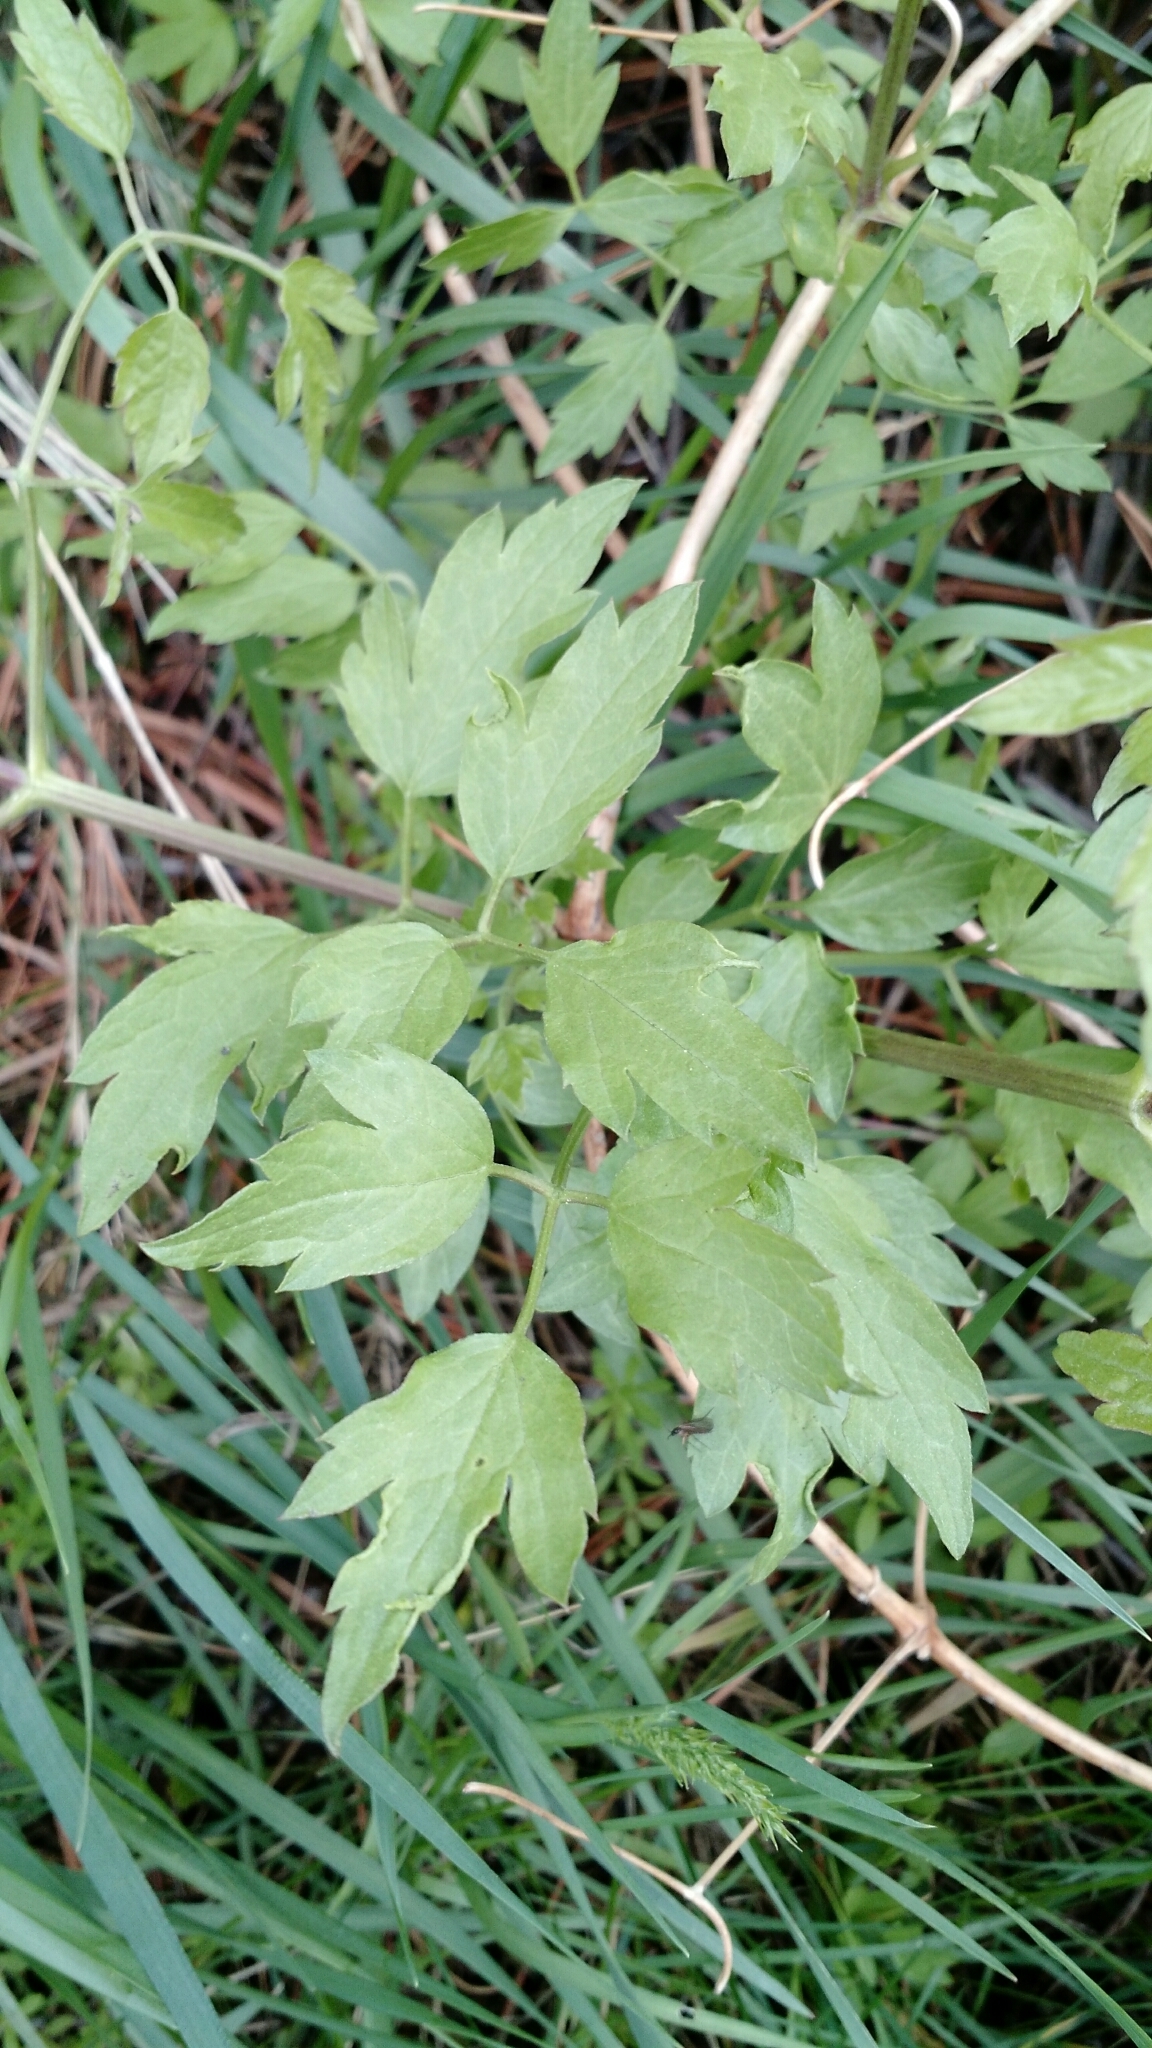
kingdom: Plantae
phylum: Tracheophyta
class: Magnoliopsida
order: Ranunculales
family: Ranunculaceae
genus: Clematis
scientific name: Clematis ligusticifolia
